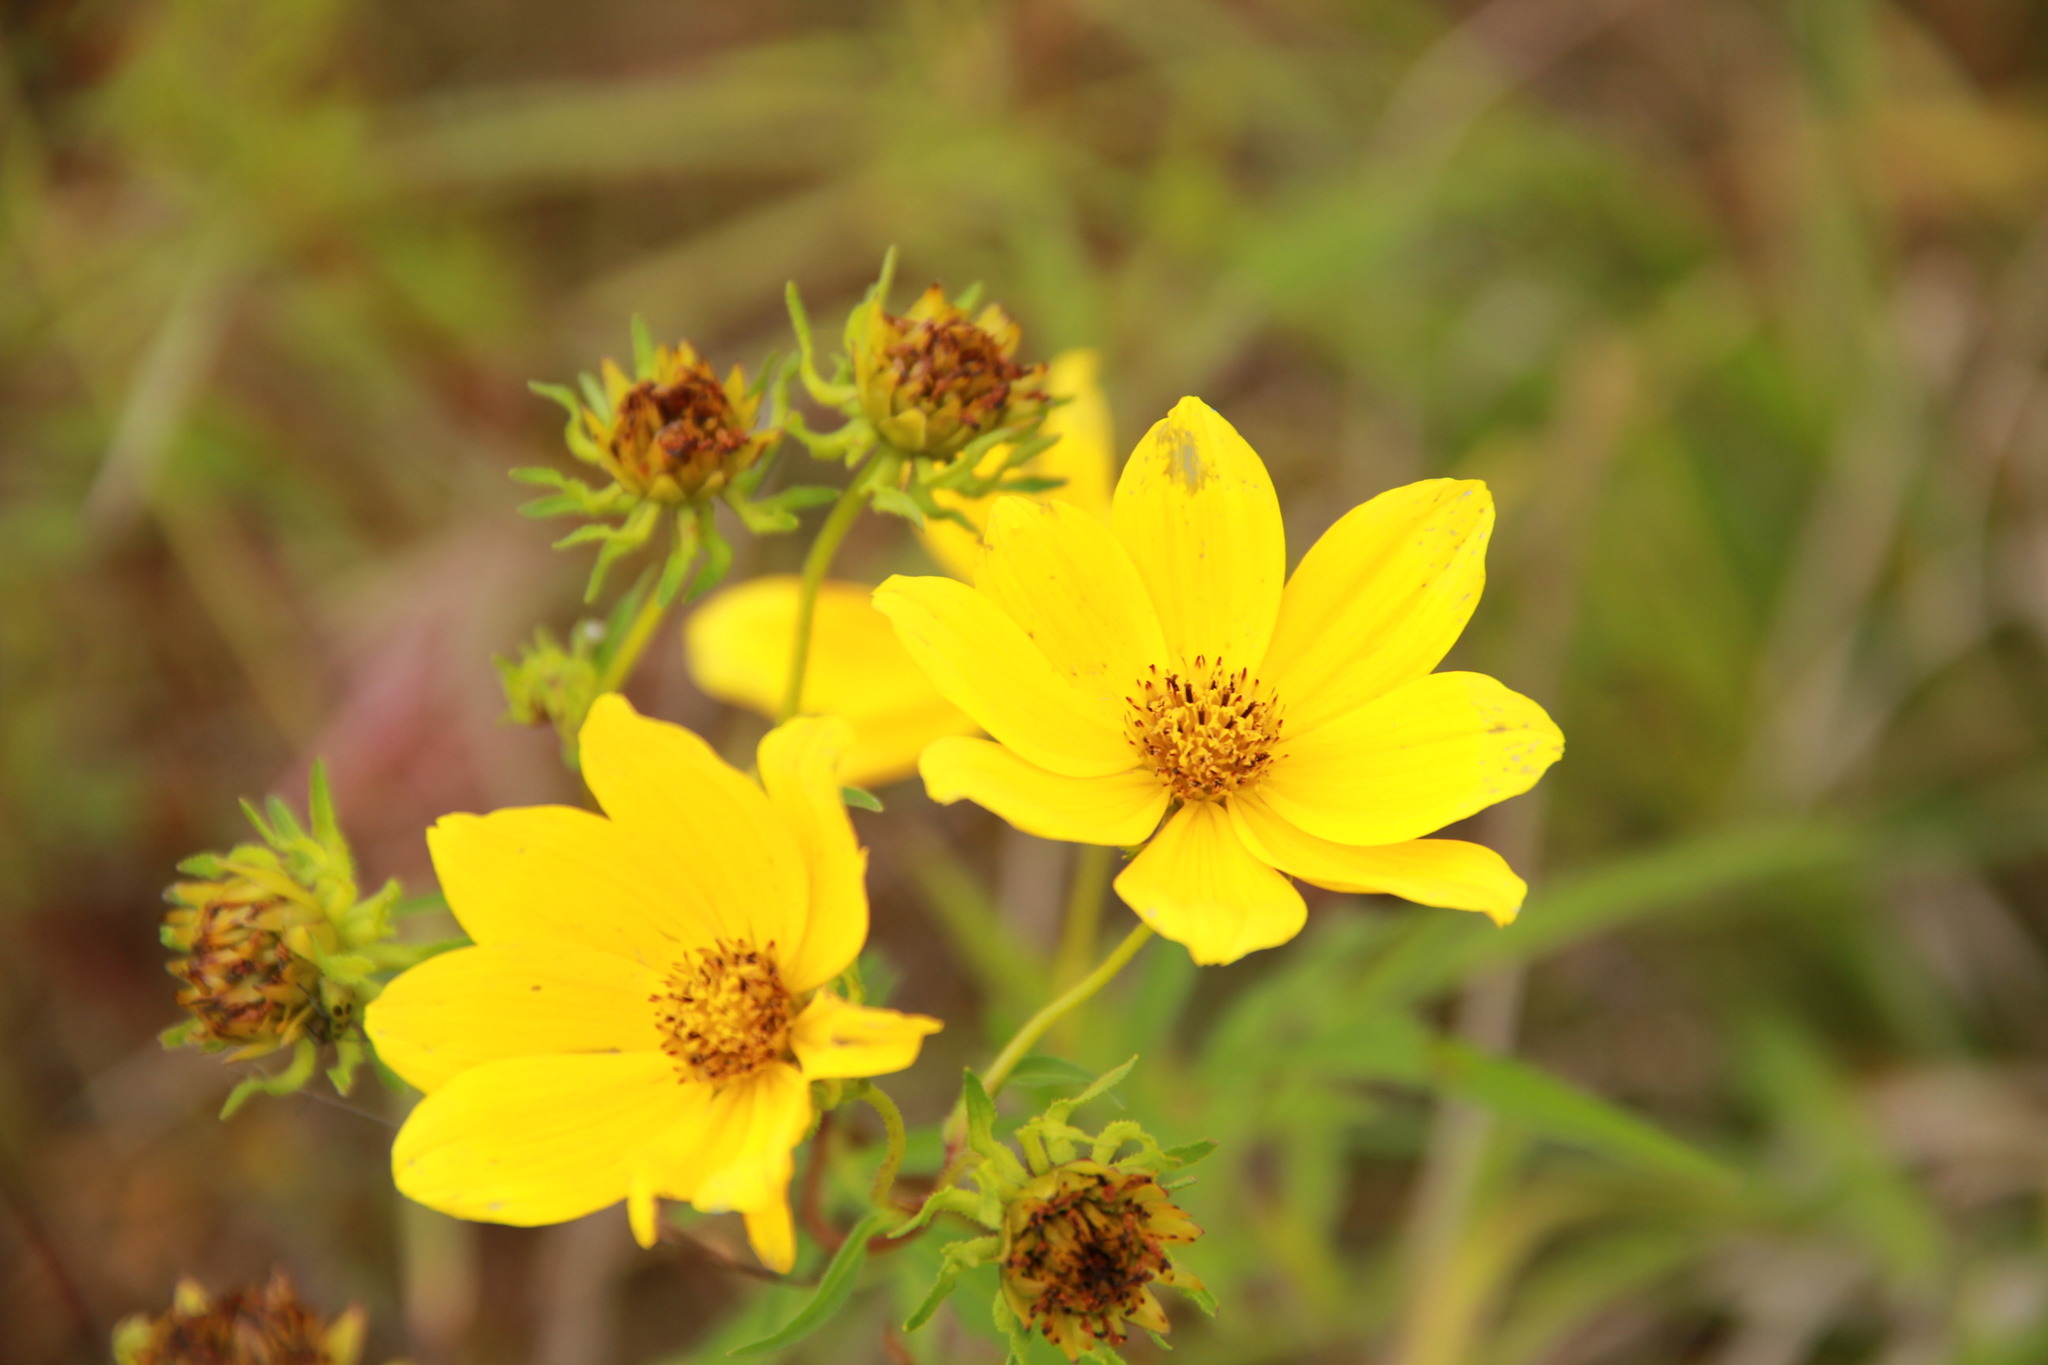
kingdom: Plantae
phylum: Tracheophyta
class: Magnoliopsida
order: Asterales
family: Asteraceae
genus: Bidens
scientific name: Bidens polylepis
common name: Awnless beggarticks
